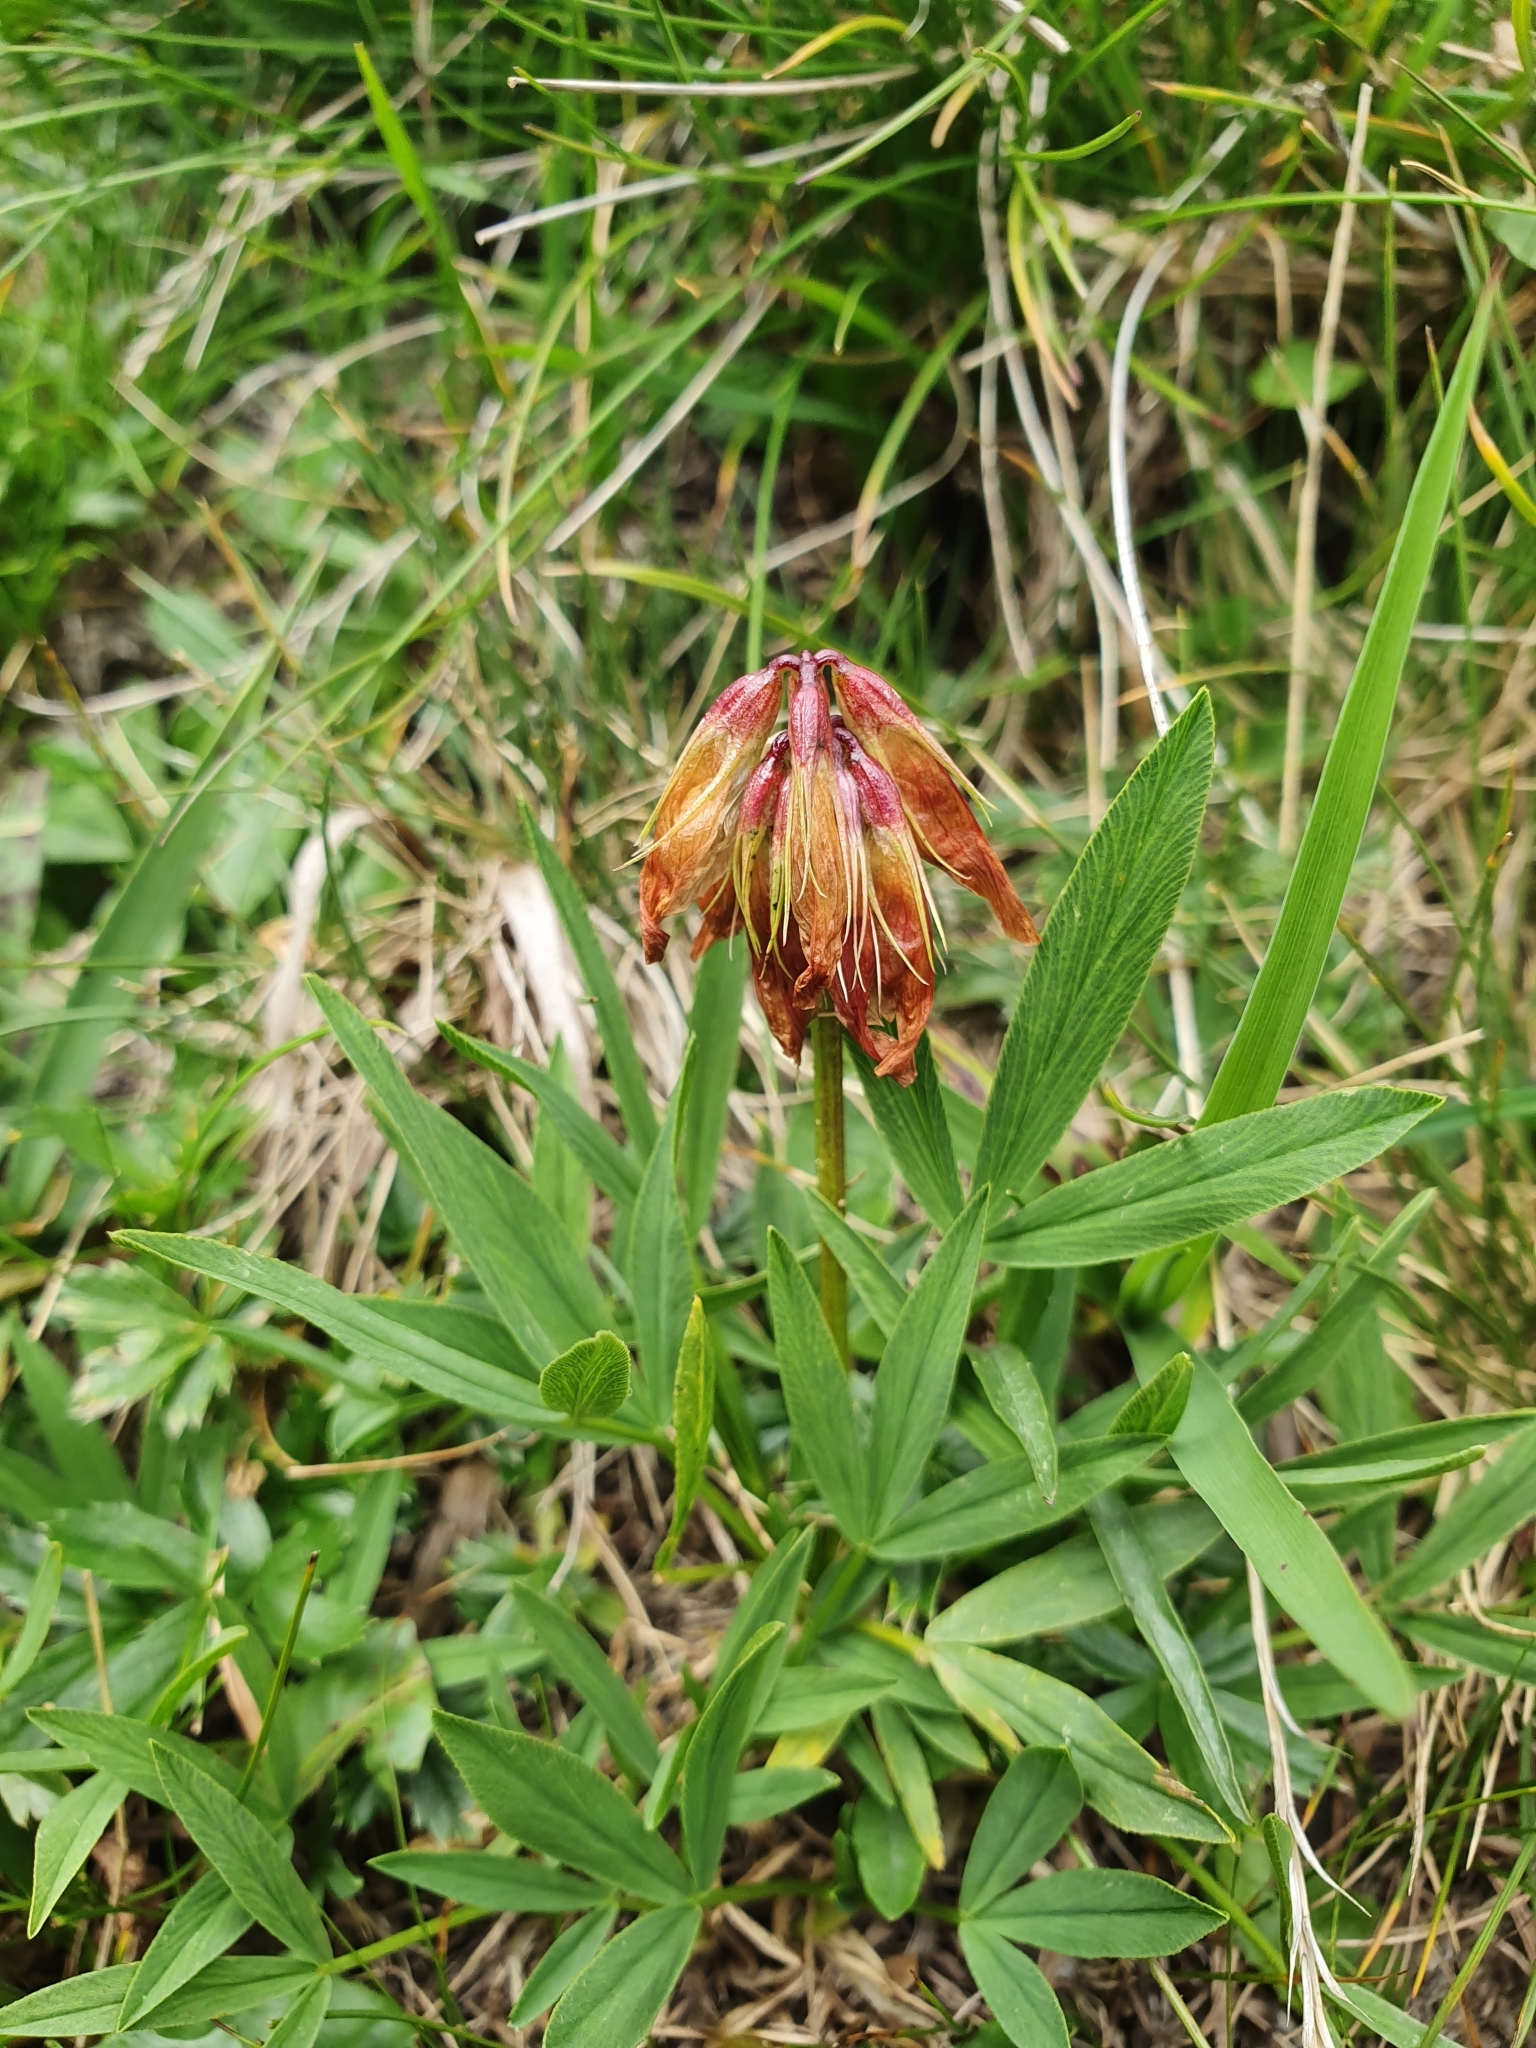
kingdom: Plantae
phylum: Tracheophyta
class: Magnoliopsida
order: Fabales
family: Fabaceae
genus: Trifolium
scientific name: Trifolium alpinum
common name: Alpine clover
